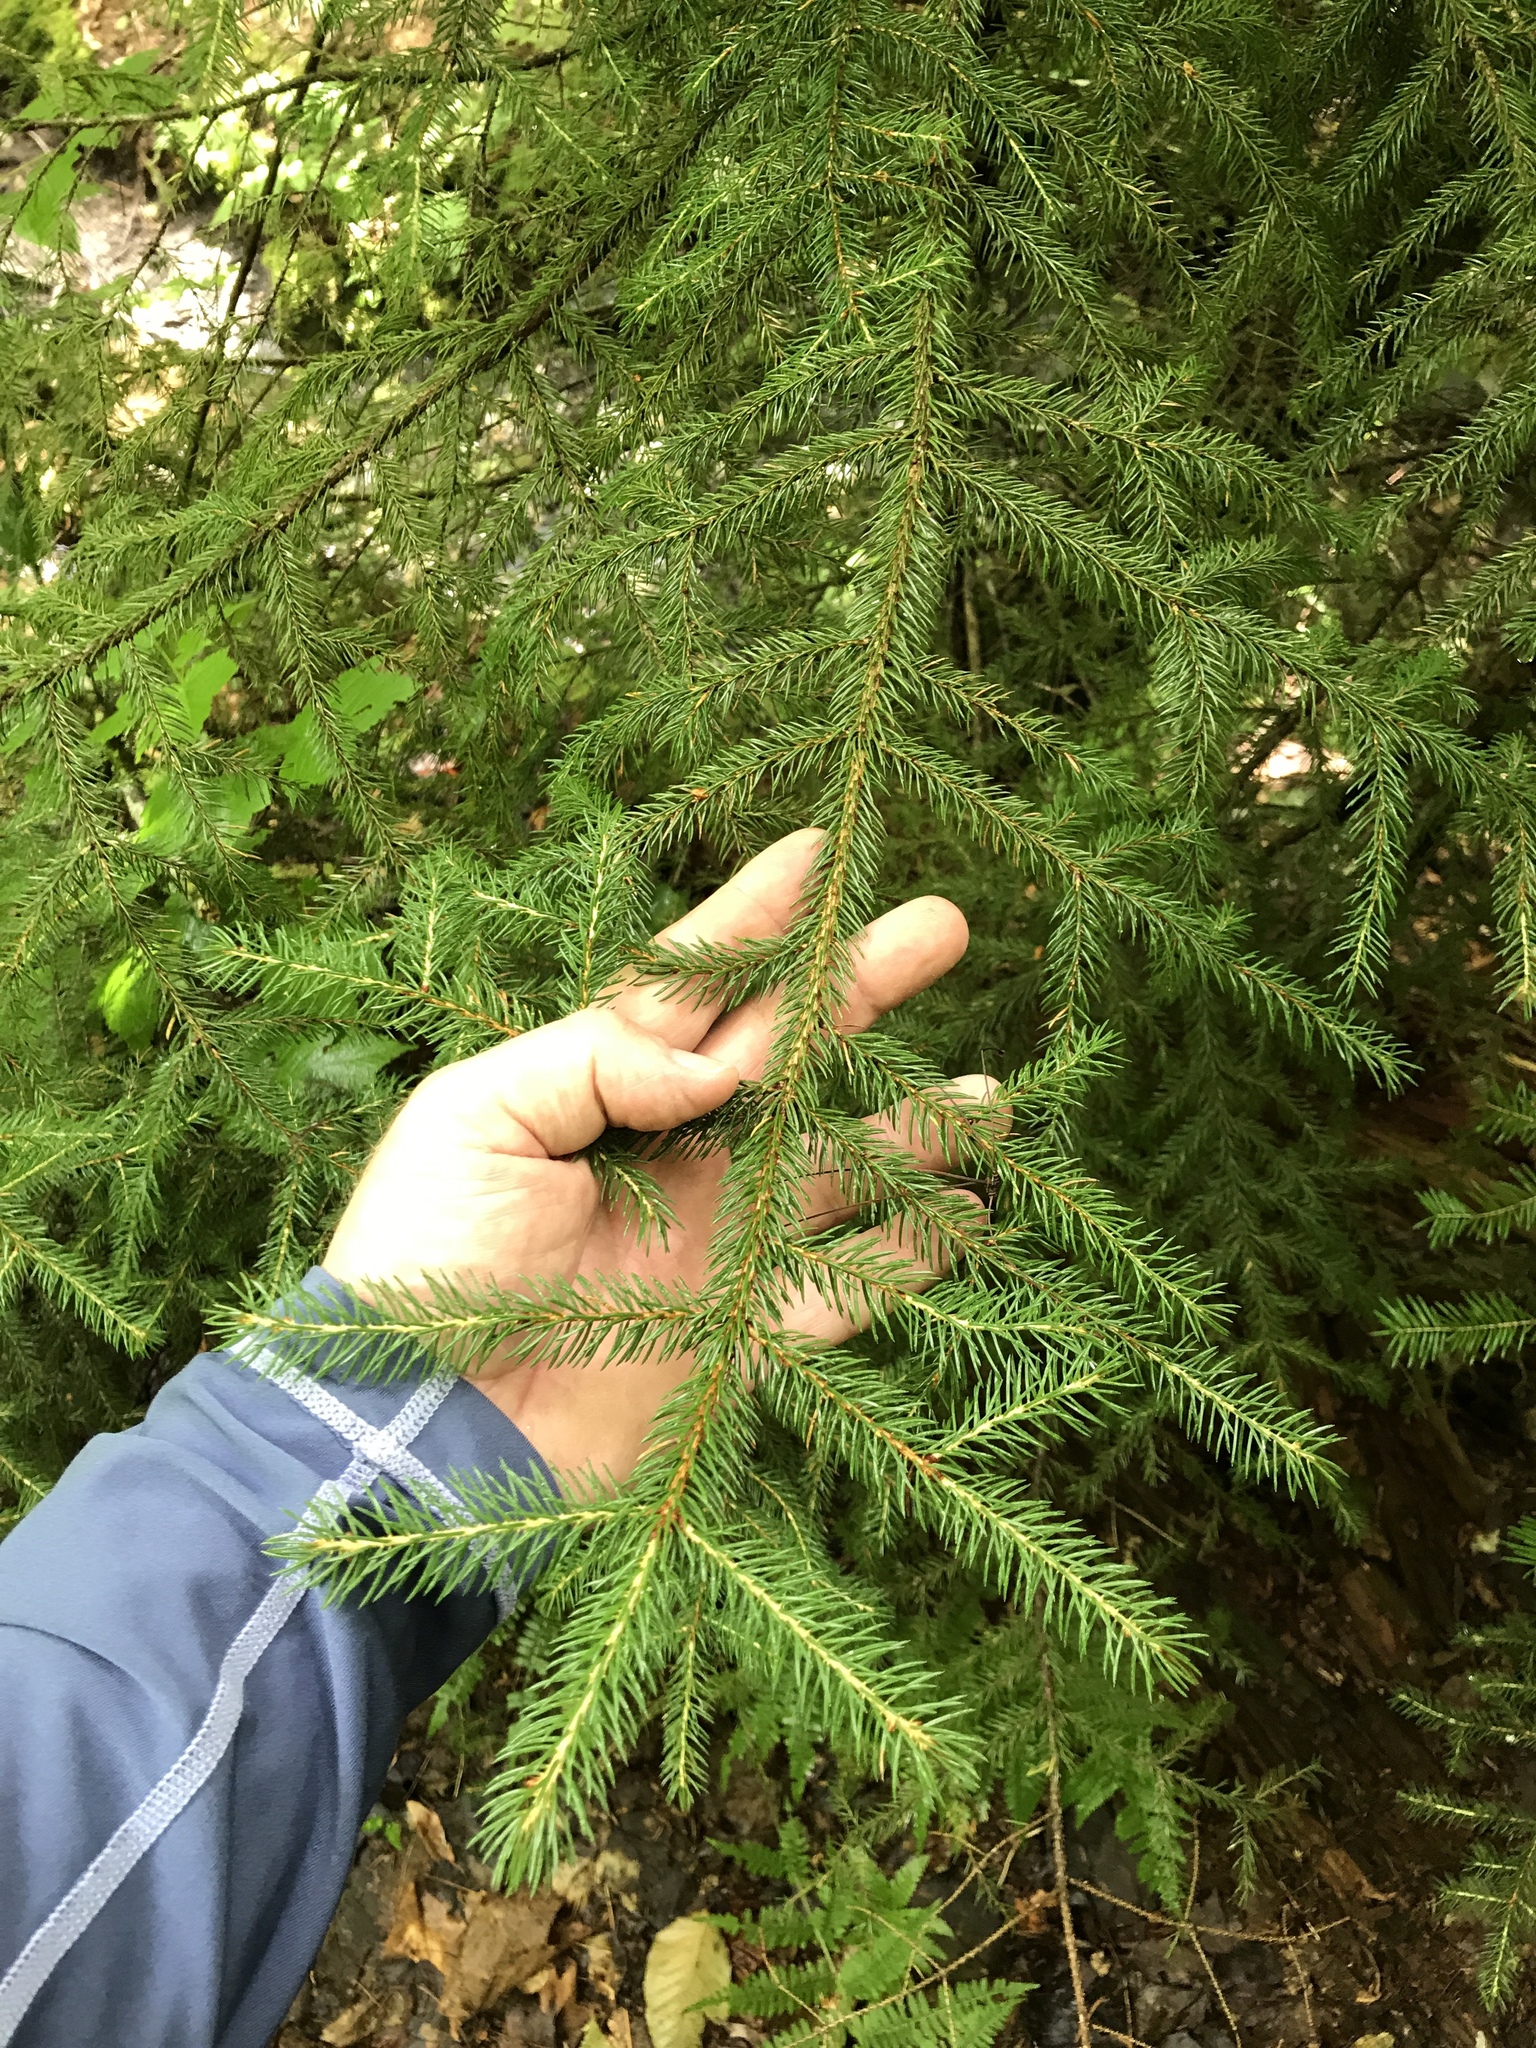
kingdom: Plantae
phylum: Tracheophyta
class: Pinopsida
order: Pinales
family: Pinaceae
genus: Picea
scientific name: Picea rubens
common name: Red spruce
